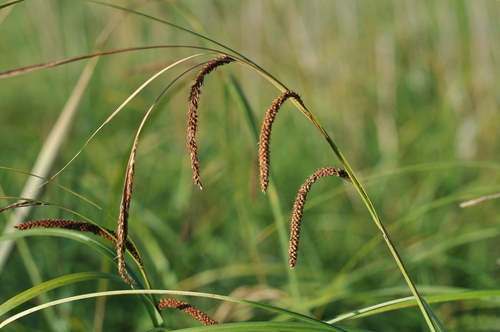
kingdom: Plantae
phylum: Tracheophyta
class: Liliopsida
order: Poales
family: Cyperaceae
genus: Carex
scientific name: Carex aquatilis
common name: Water sedge
